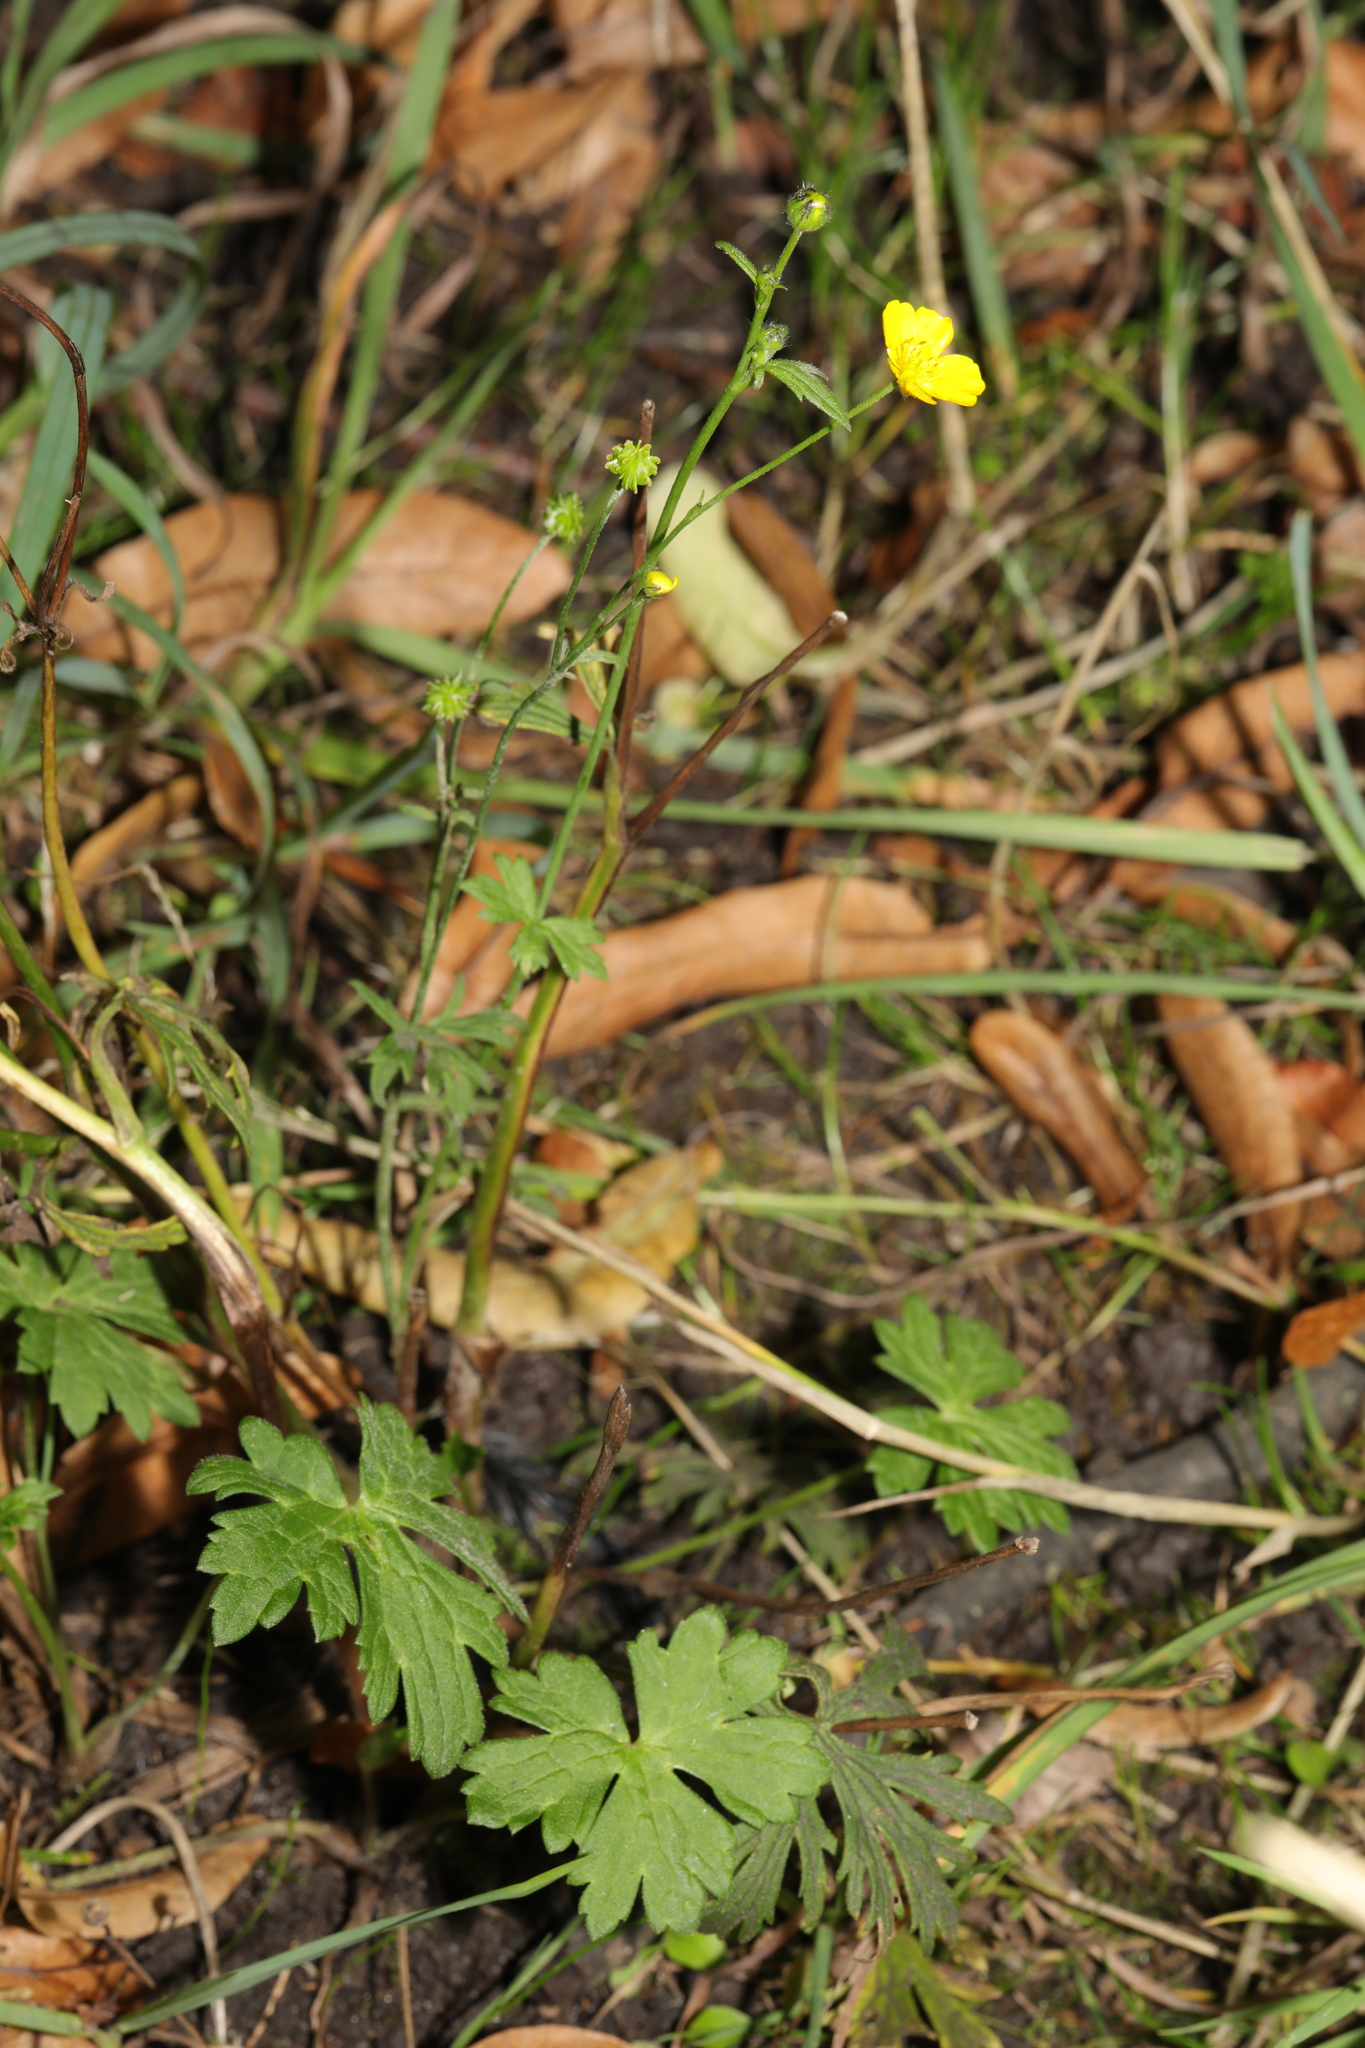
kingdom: Plantae
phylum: Tracheophyta
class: Magnoliopsida
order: Ranunculales
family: Ranunculaceae
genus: Ranunculus
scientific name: Ranunculus acris
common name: Meadow buttercup
